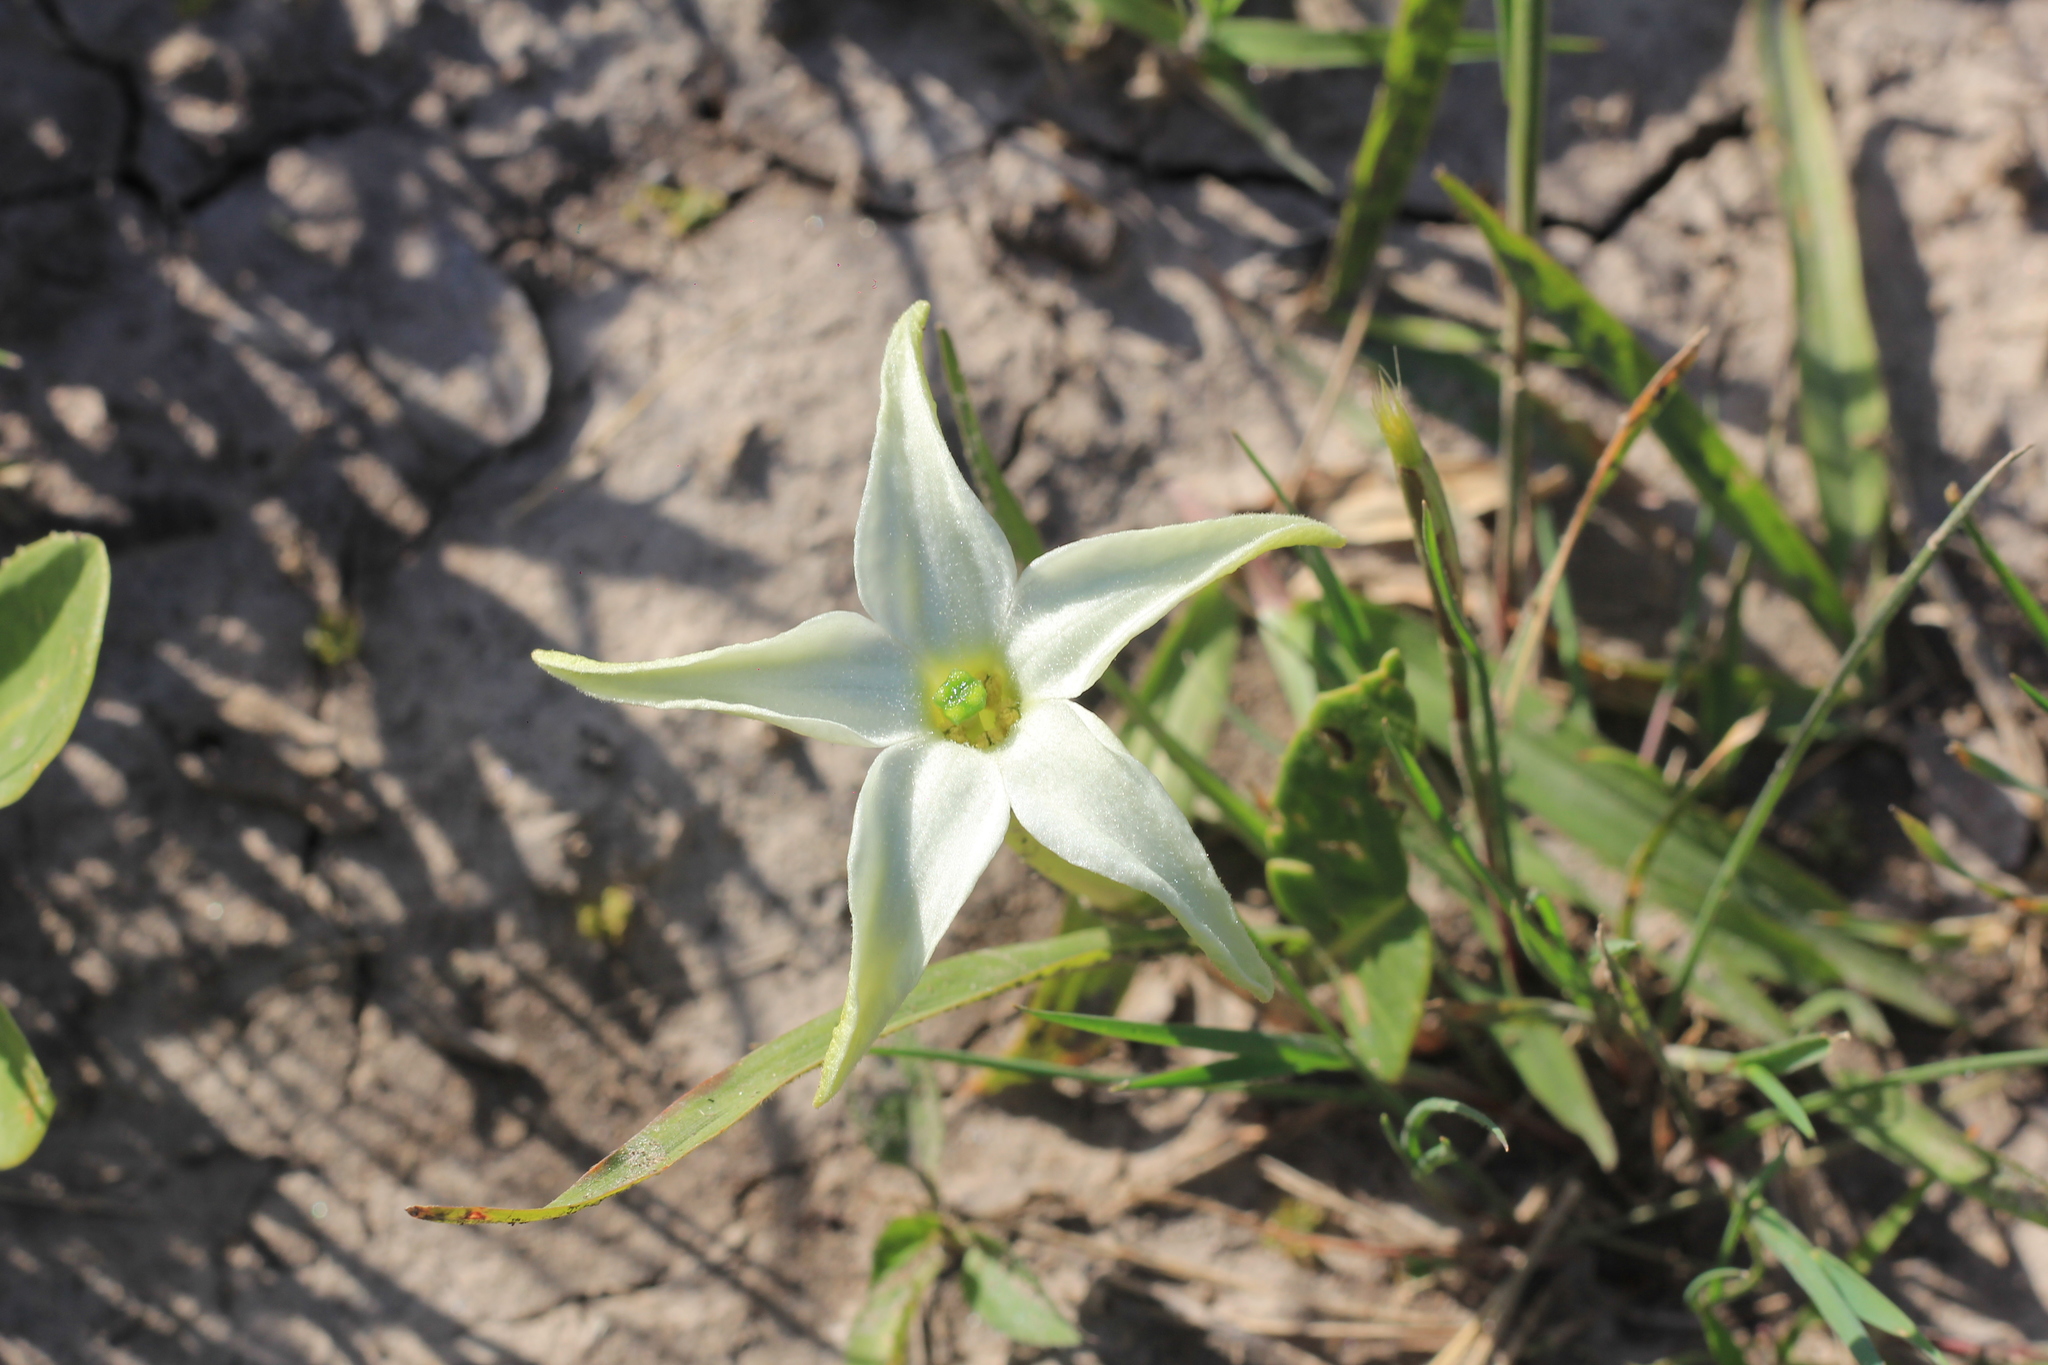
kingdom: Plantae
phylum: Tracheophyta
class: Magnoliopsida
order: Solanales
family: Solanaceae
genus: Jaborosa
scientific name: Jaborosa integrifolia
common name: Springblossom
